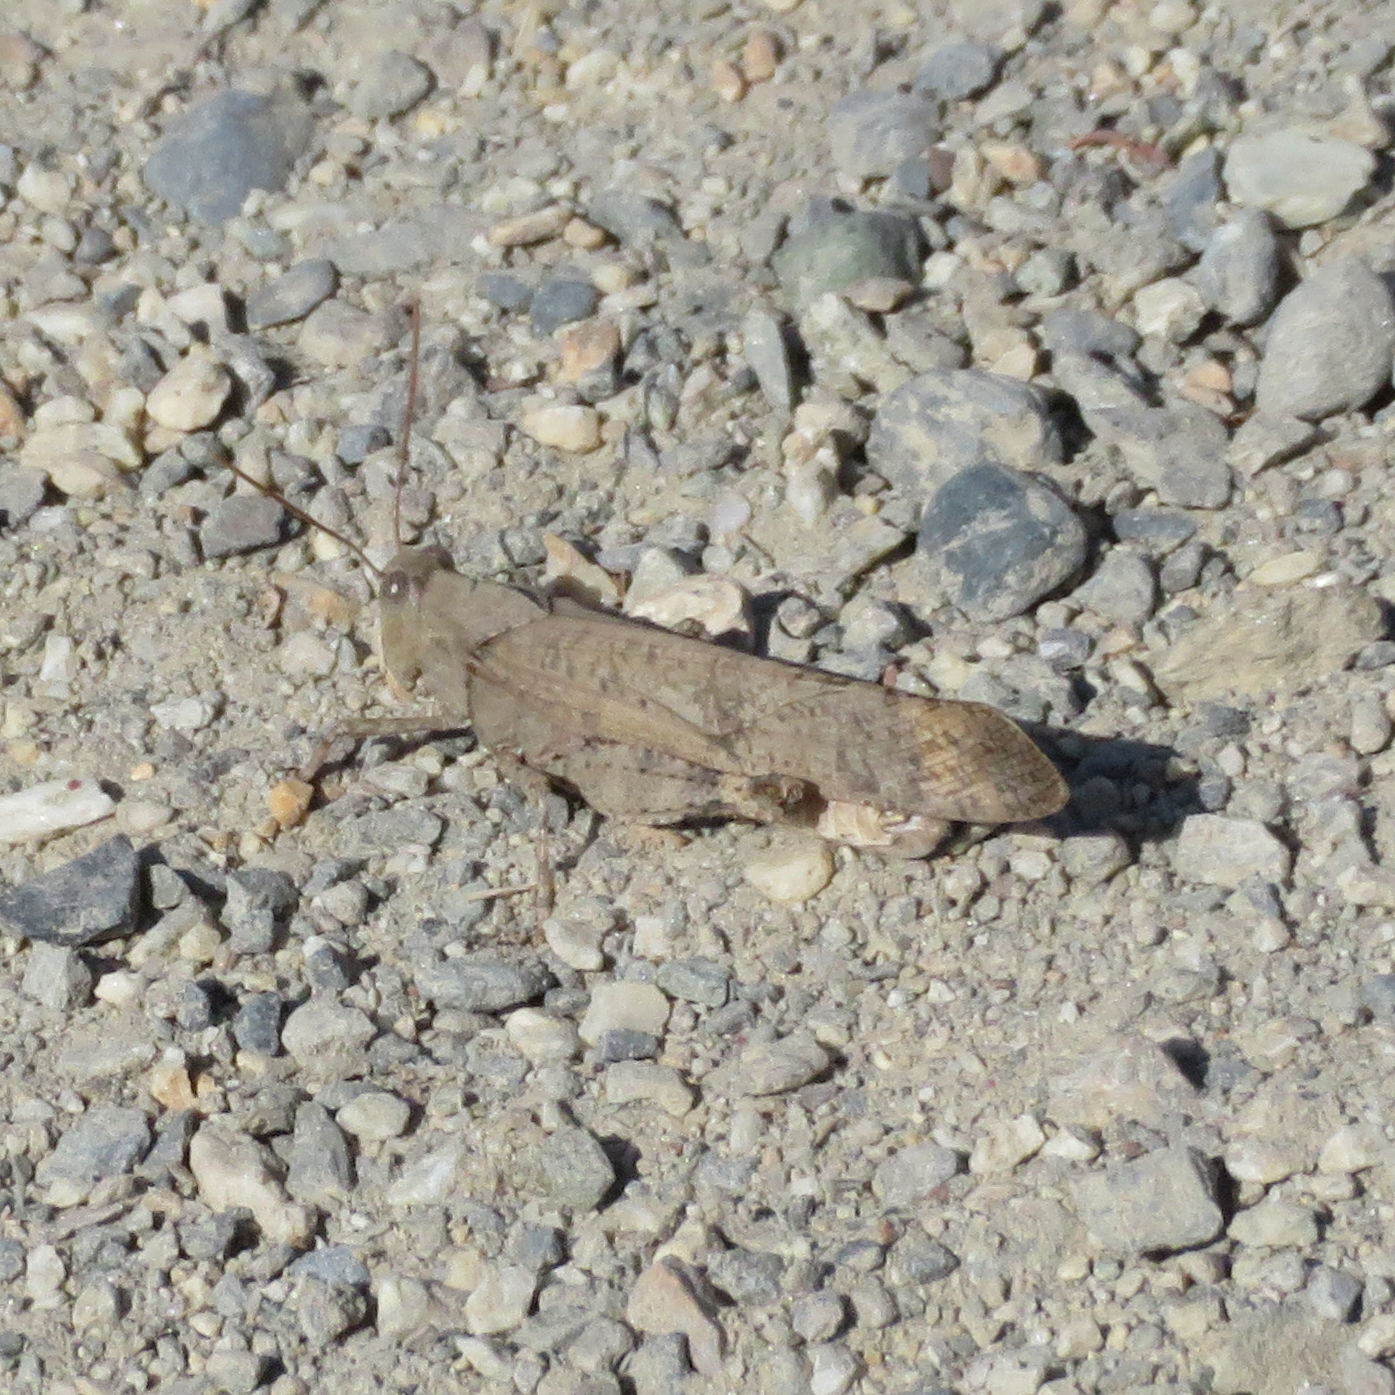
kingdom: Animalia
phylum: Arthropoda
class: Insecta
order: Orthoptera
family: Acrididae
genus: Dissosteira
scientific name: Dissosteira carolina
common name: Carolina grasshopper
